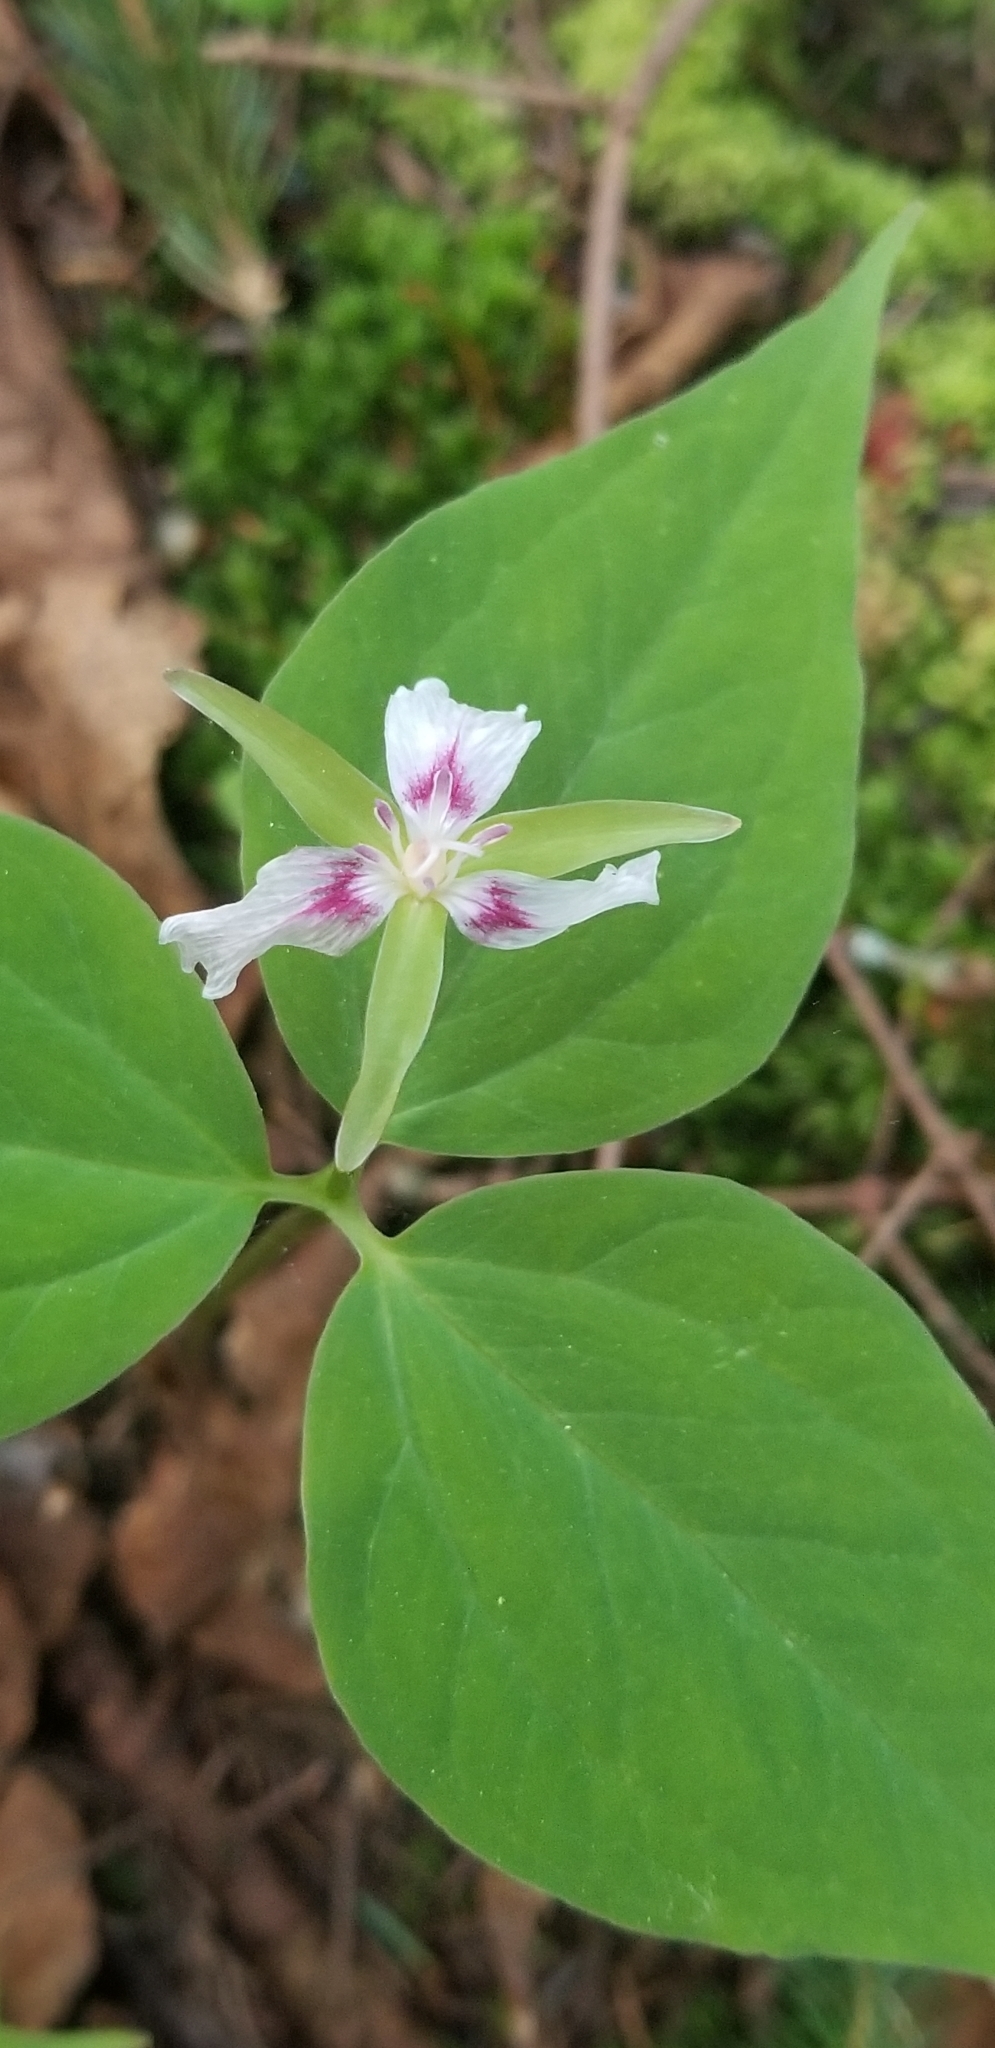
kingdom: Plantae
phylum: Tracheophyta
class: Liliopsida
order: Liliales
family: Melanthiaceae
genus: Trillium
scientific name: Trillium undulatum
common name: Paint trillium
